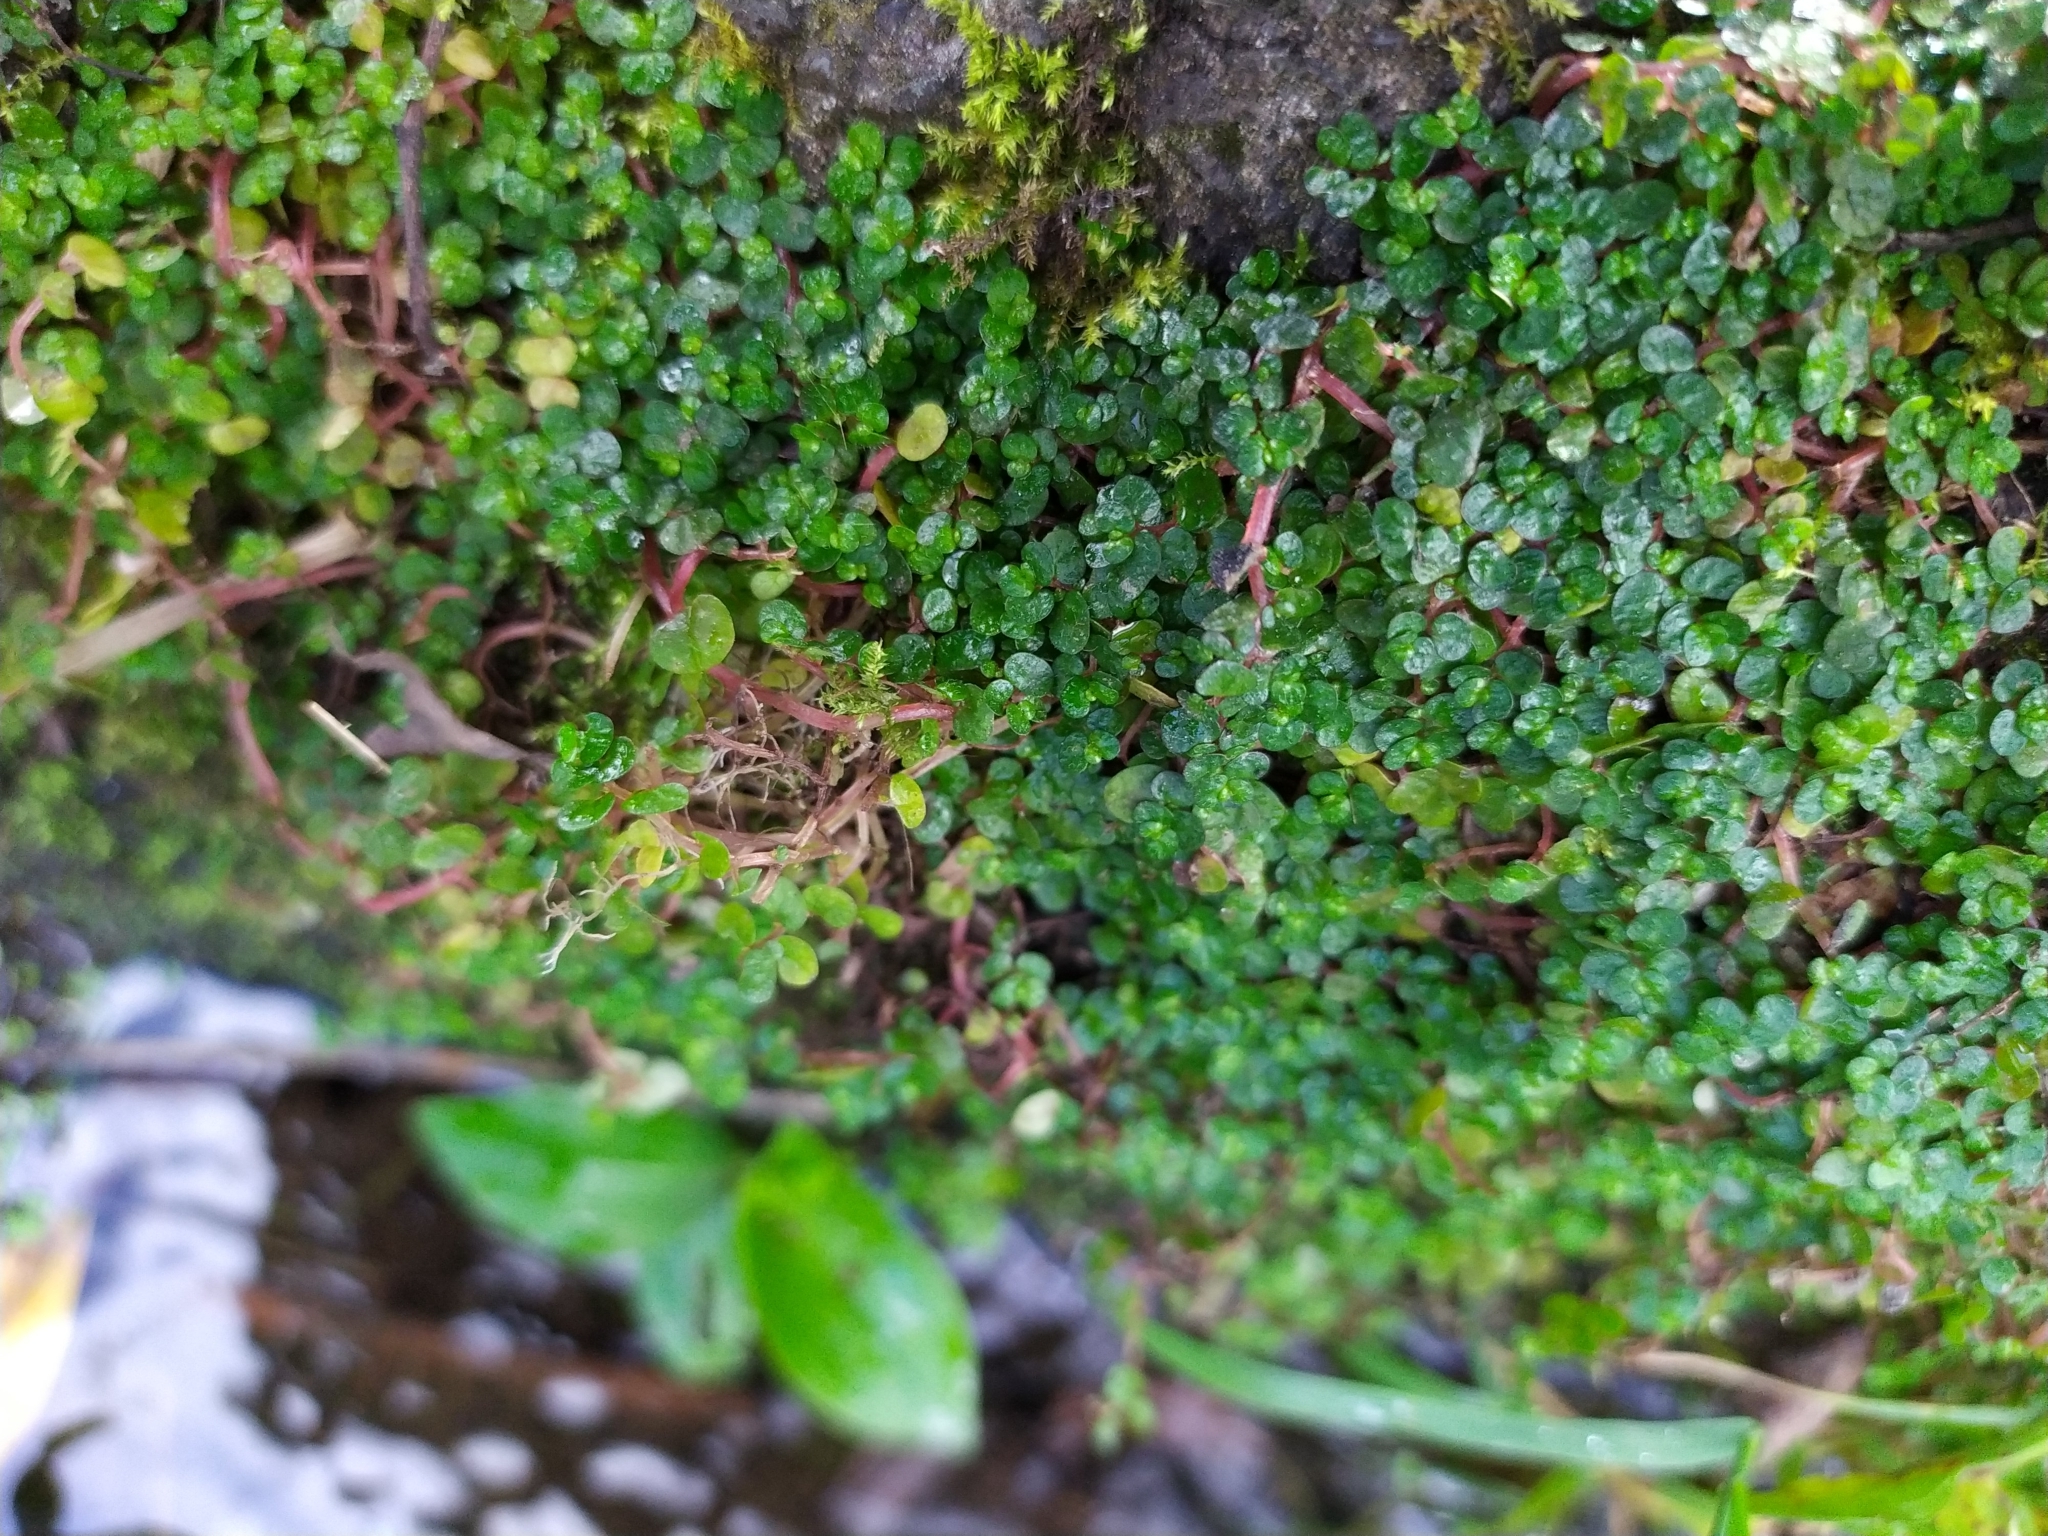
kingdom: Plantae
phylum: Tracheophyta
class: Magnoliopsida
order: Rosales
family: Urticaceae
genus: Soleirolia
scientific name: Soleirolia soleirolii
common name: Mind-your-own-business
